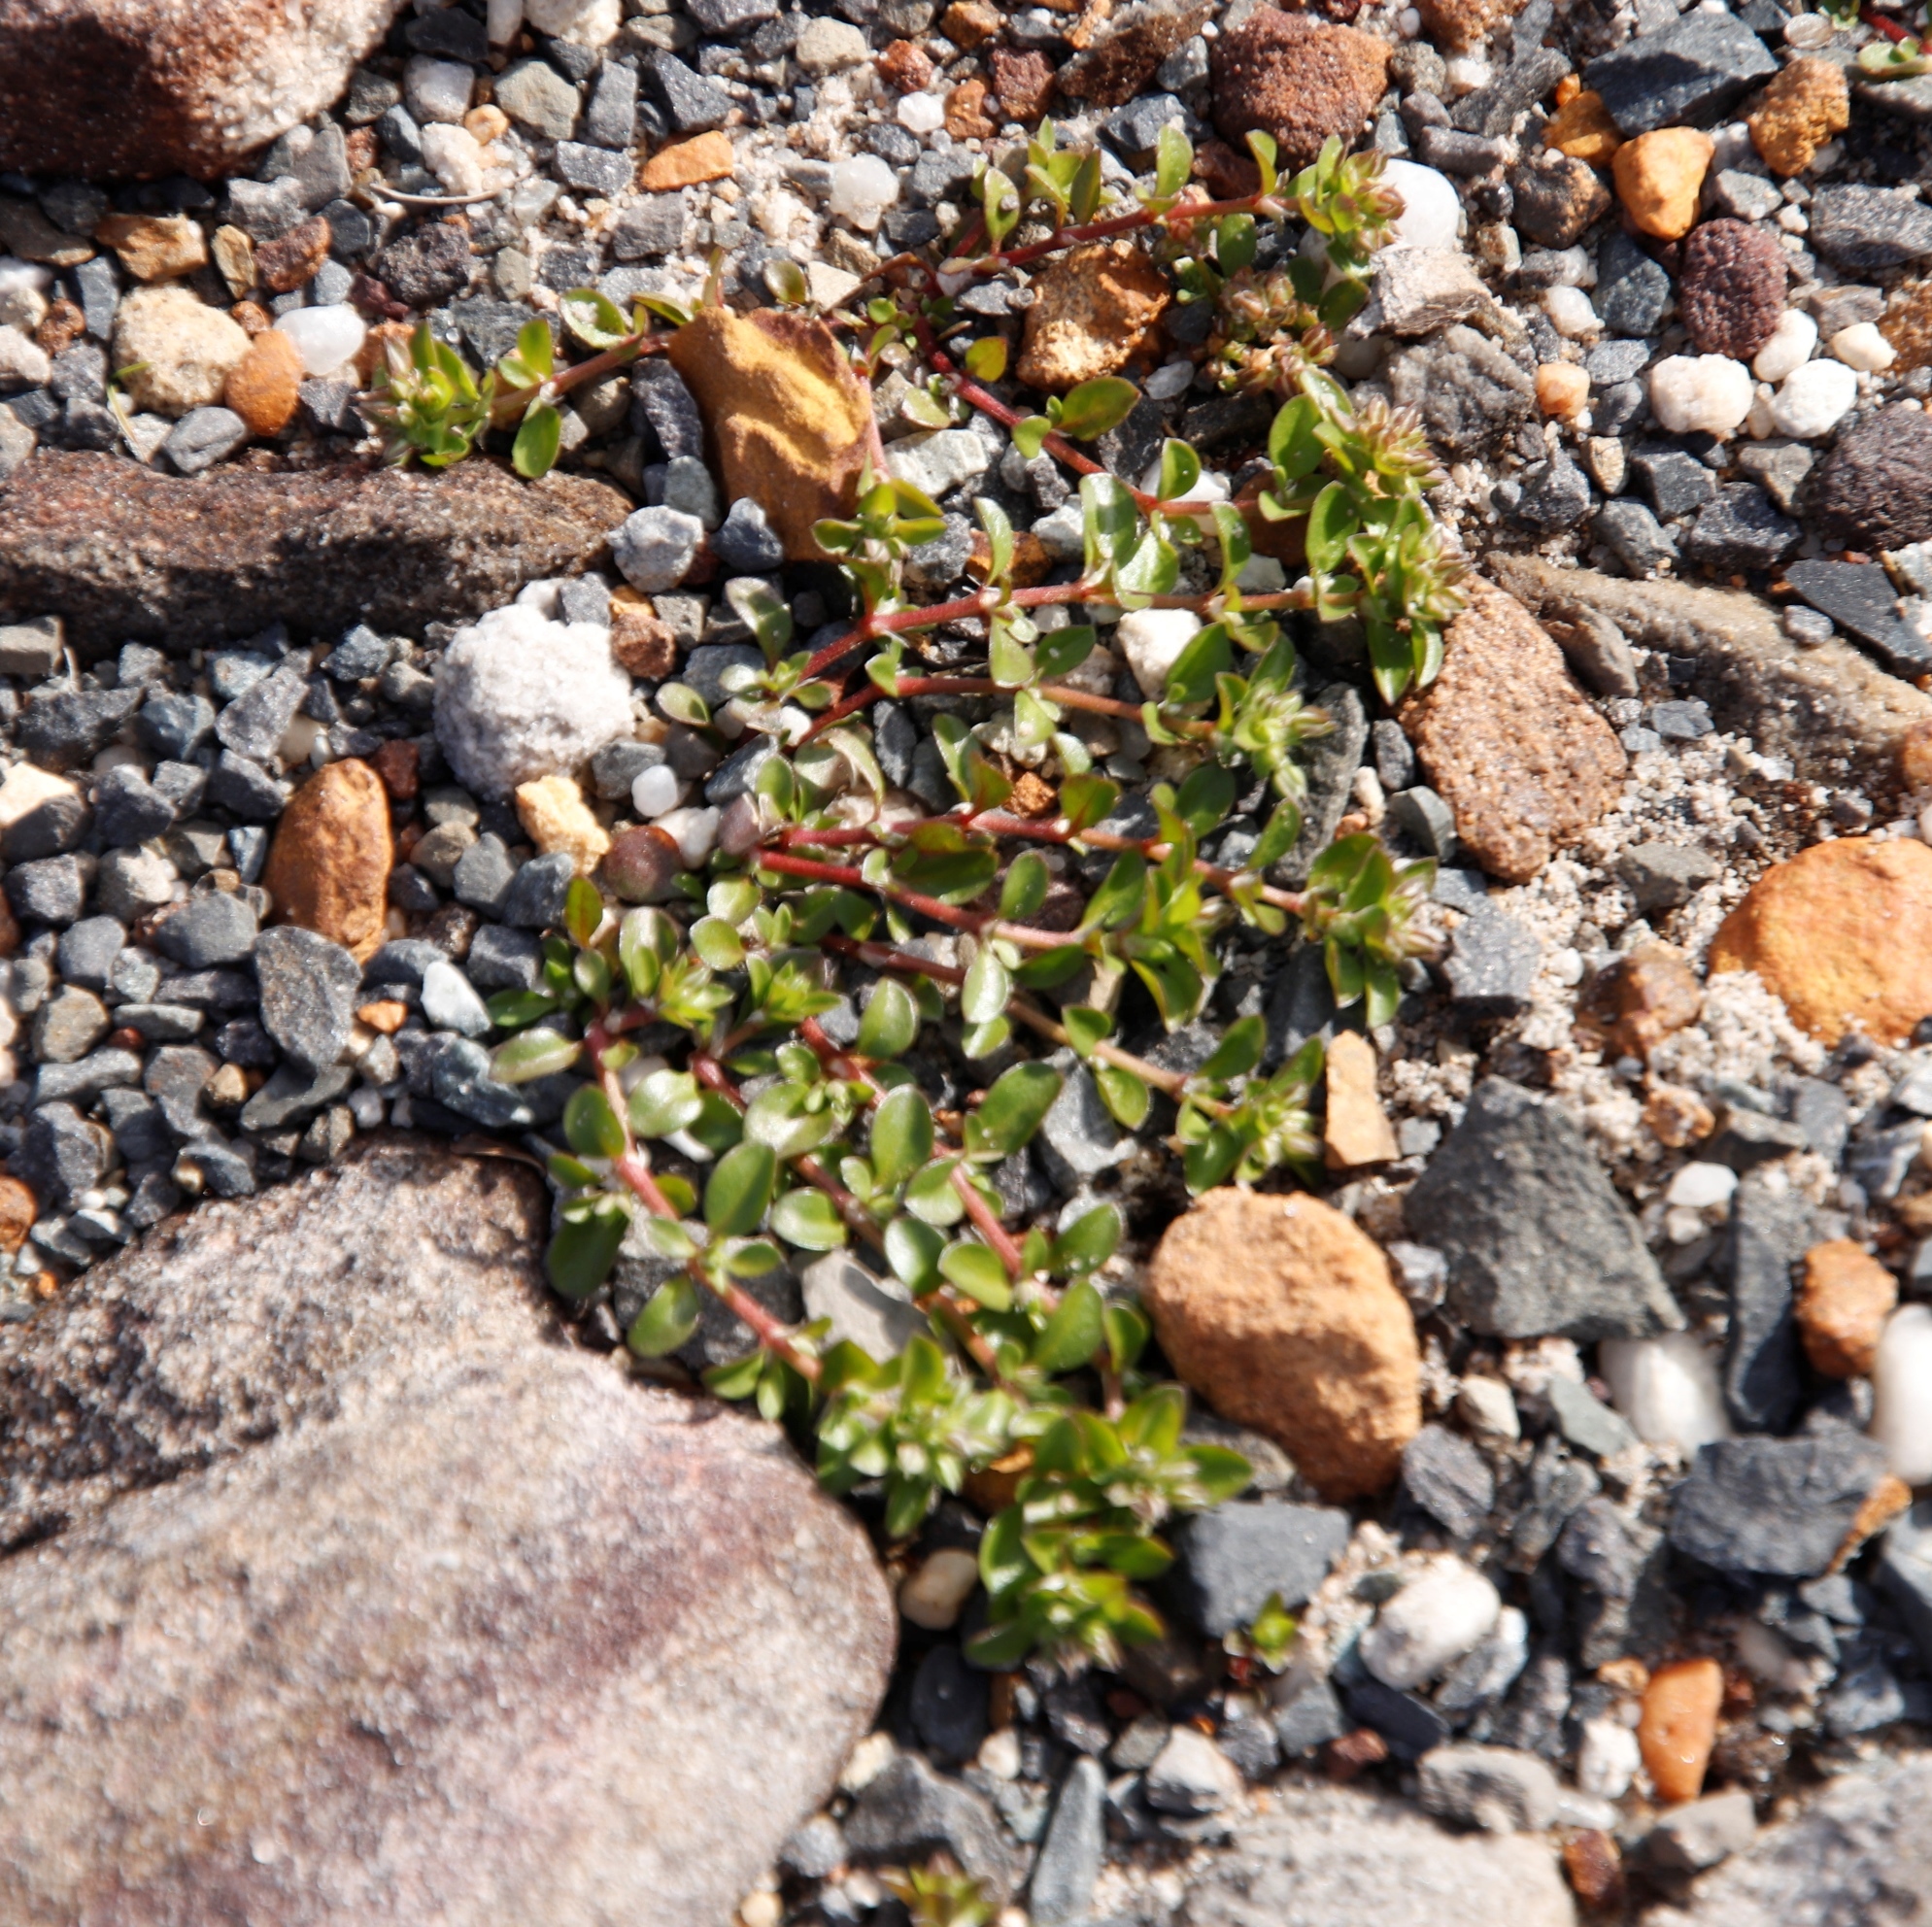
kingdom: Plantae
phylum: Tracheophyta
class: Magnoliopsida
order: Caryophyllales
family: Portulacaceae
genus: Portulaca
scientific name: Portulaca oleracea
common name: Common purslane
